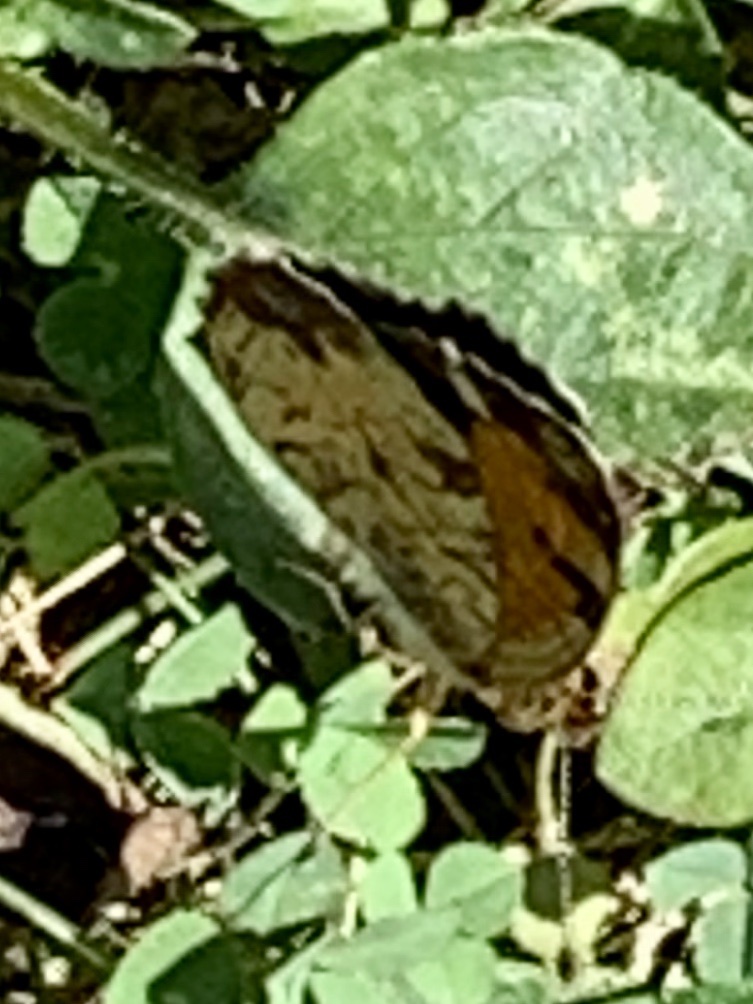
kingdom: Animalia
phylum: Arthropoda
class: Insecta
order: Lepidoptera
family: Nymphalidae
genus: Phyciodes
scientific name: Phyciodes tharos
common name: Pearl crescent
